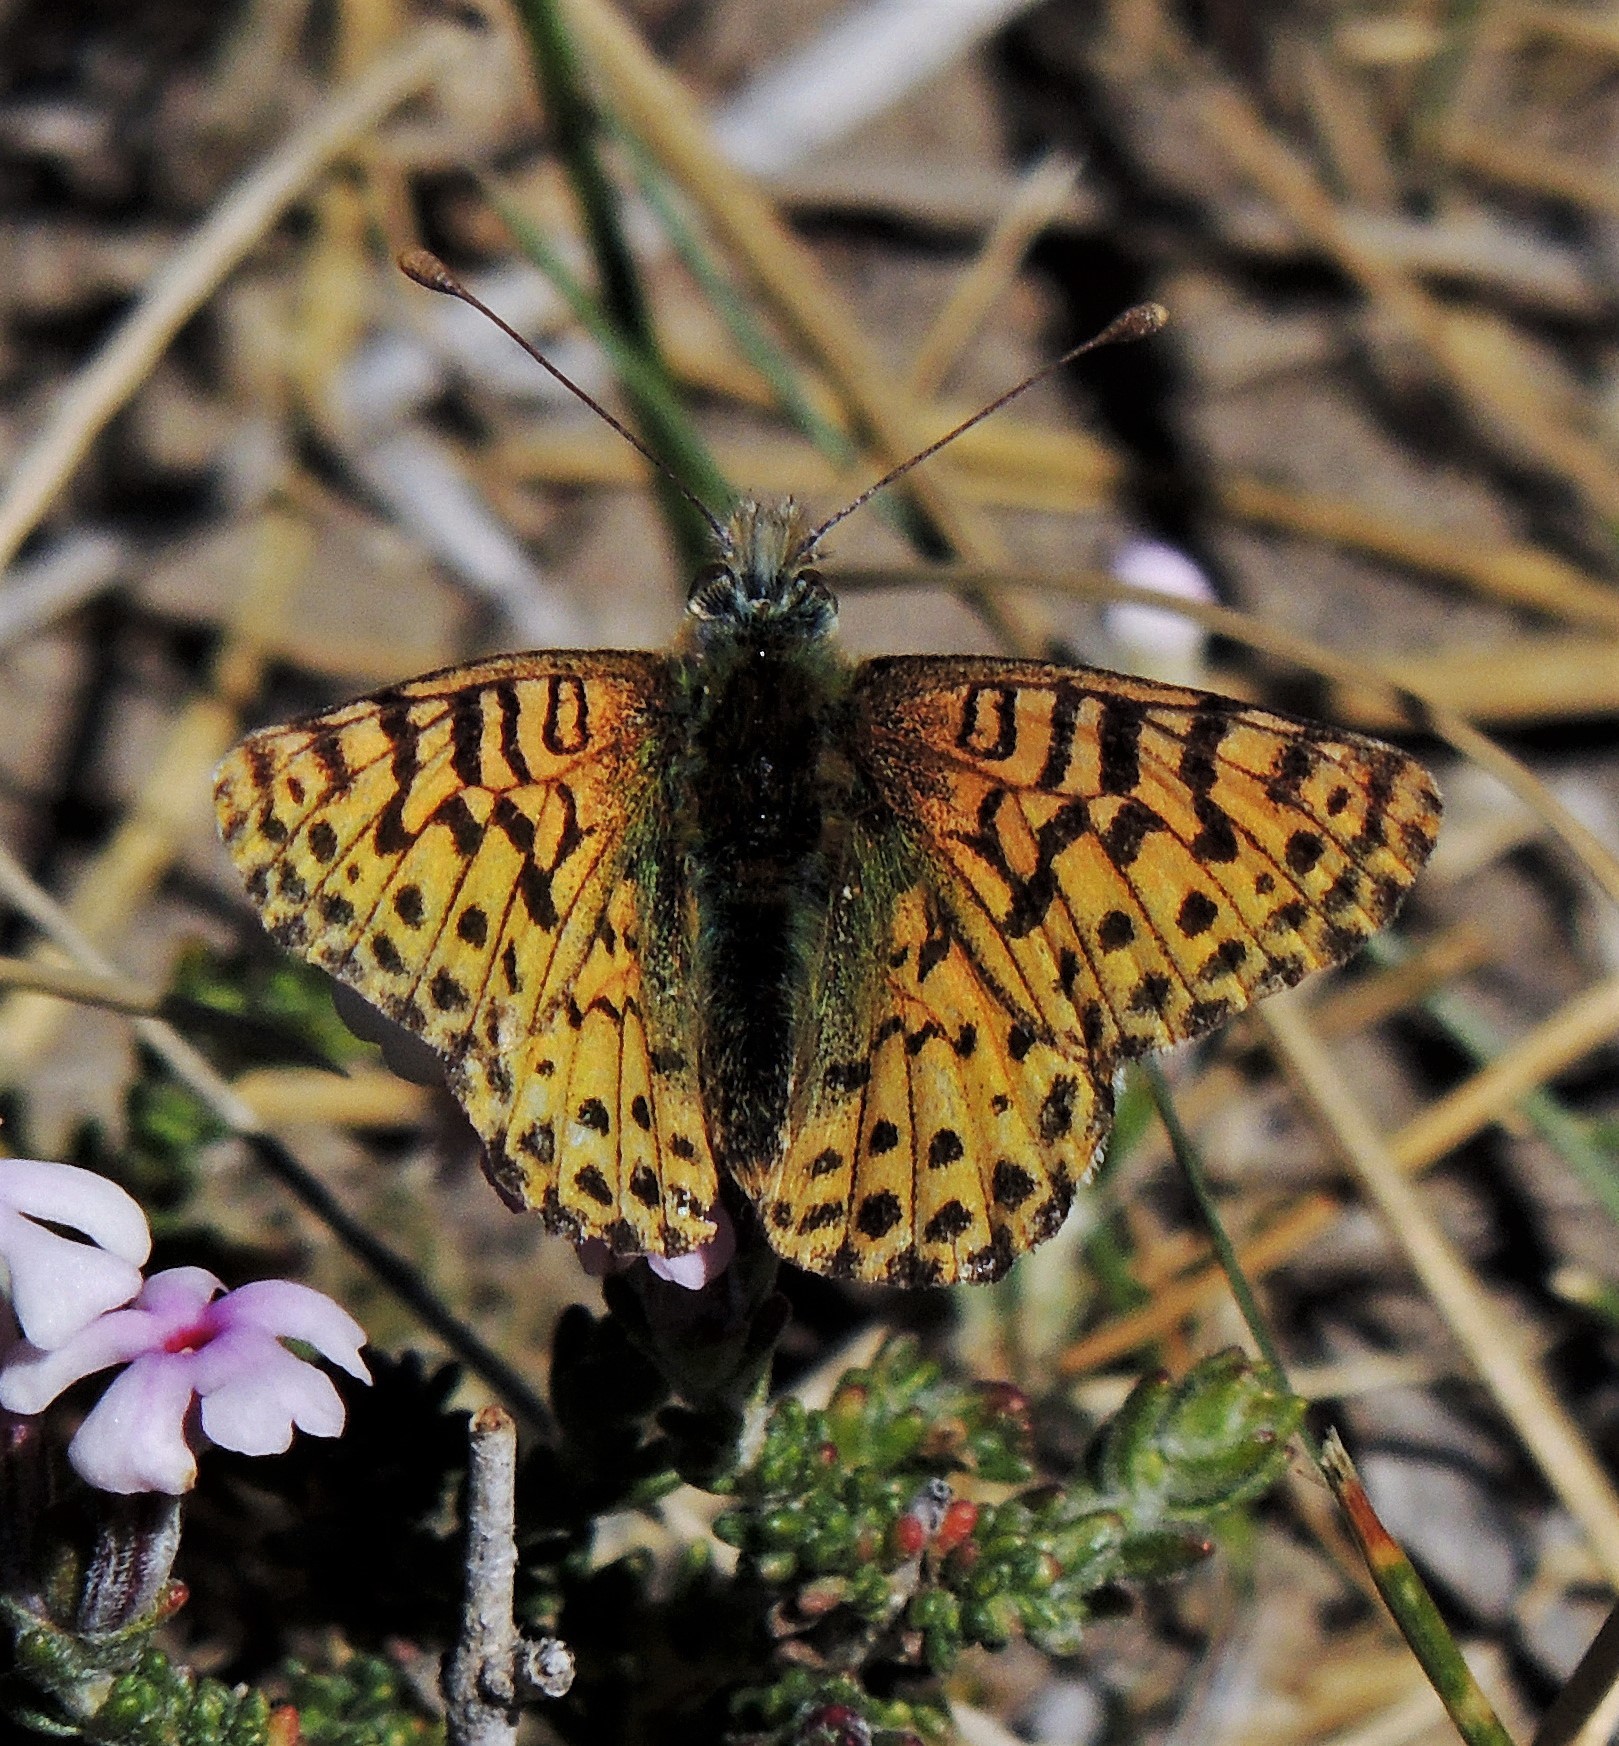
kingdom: Animalia
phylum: Arthropoda
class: Insecta
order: Lepidoptera
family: Nymphalidae
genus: Issoria
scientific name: Issoria Yramea lathonoides
